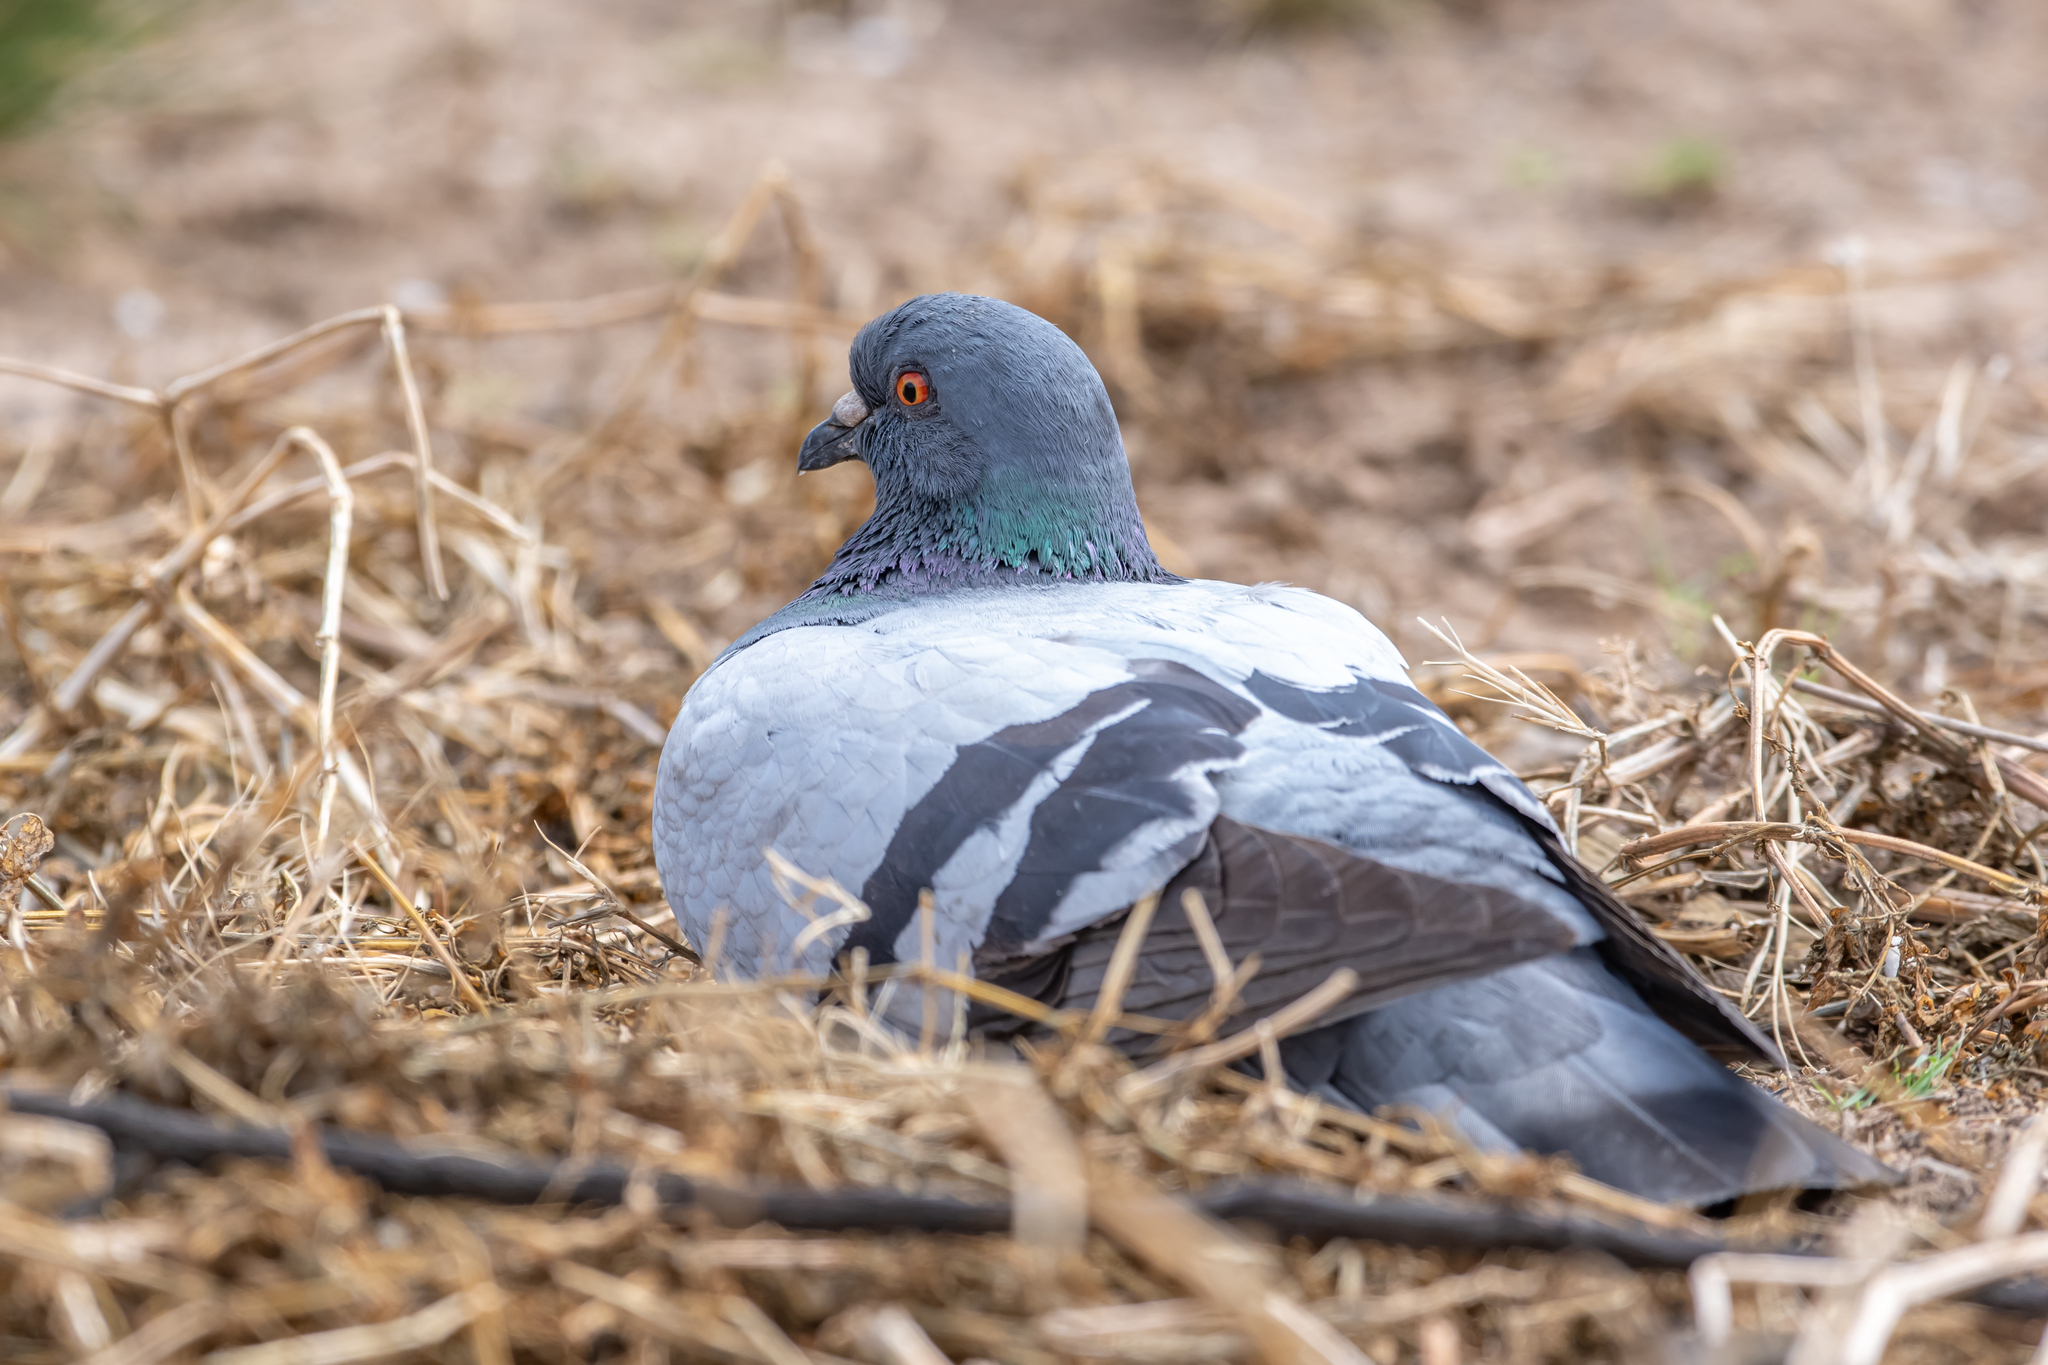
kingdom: Animalia
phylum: Chordata
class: Aves
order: Columbiformes
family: Columbidae
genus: Columba
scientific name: Columba livia
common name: Rock pigeon
